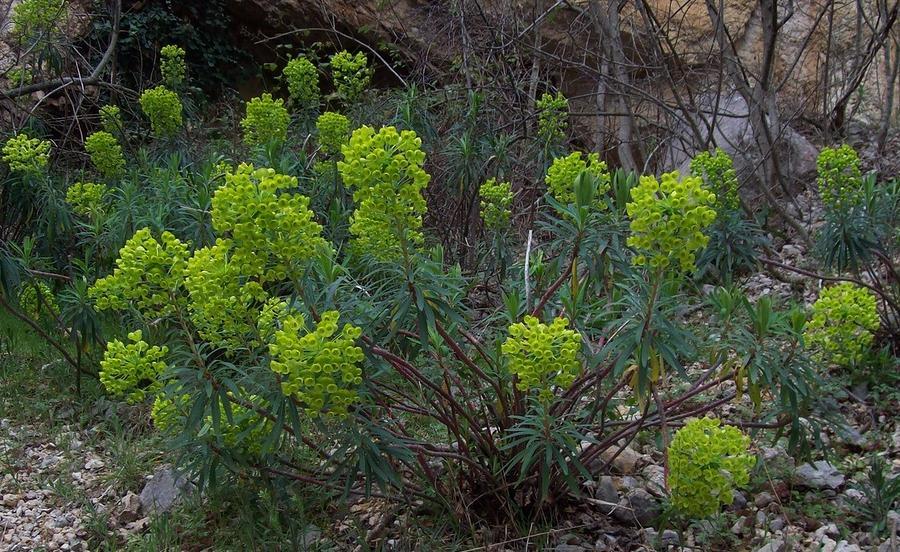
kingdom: Plantae
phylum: Tracheophyta
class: Magnoliopsida
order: Malpighiales
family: Euphorbiaceae
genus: Euphorbia
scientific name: Euphorbia characias
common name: Mediterranean spurge
